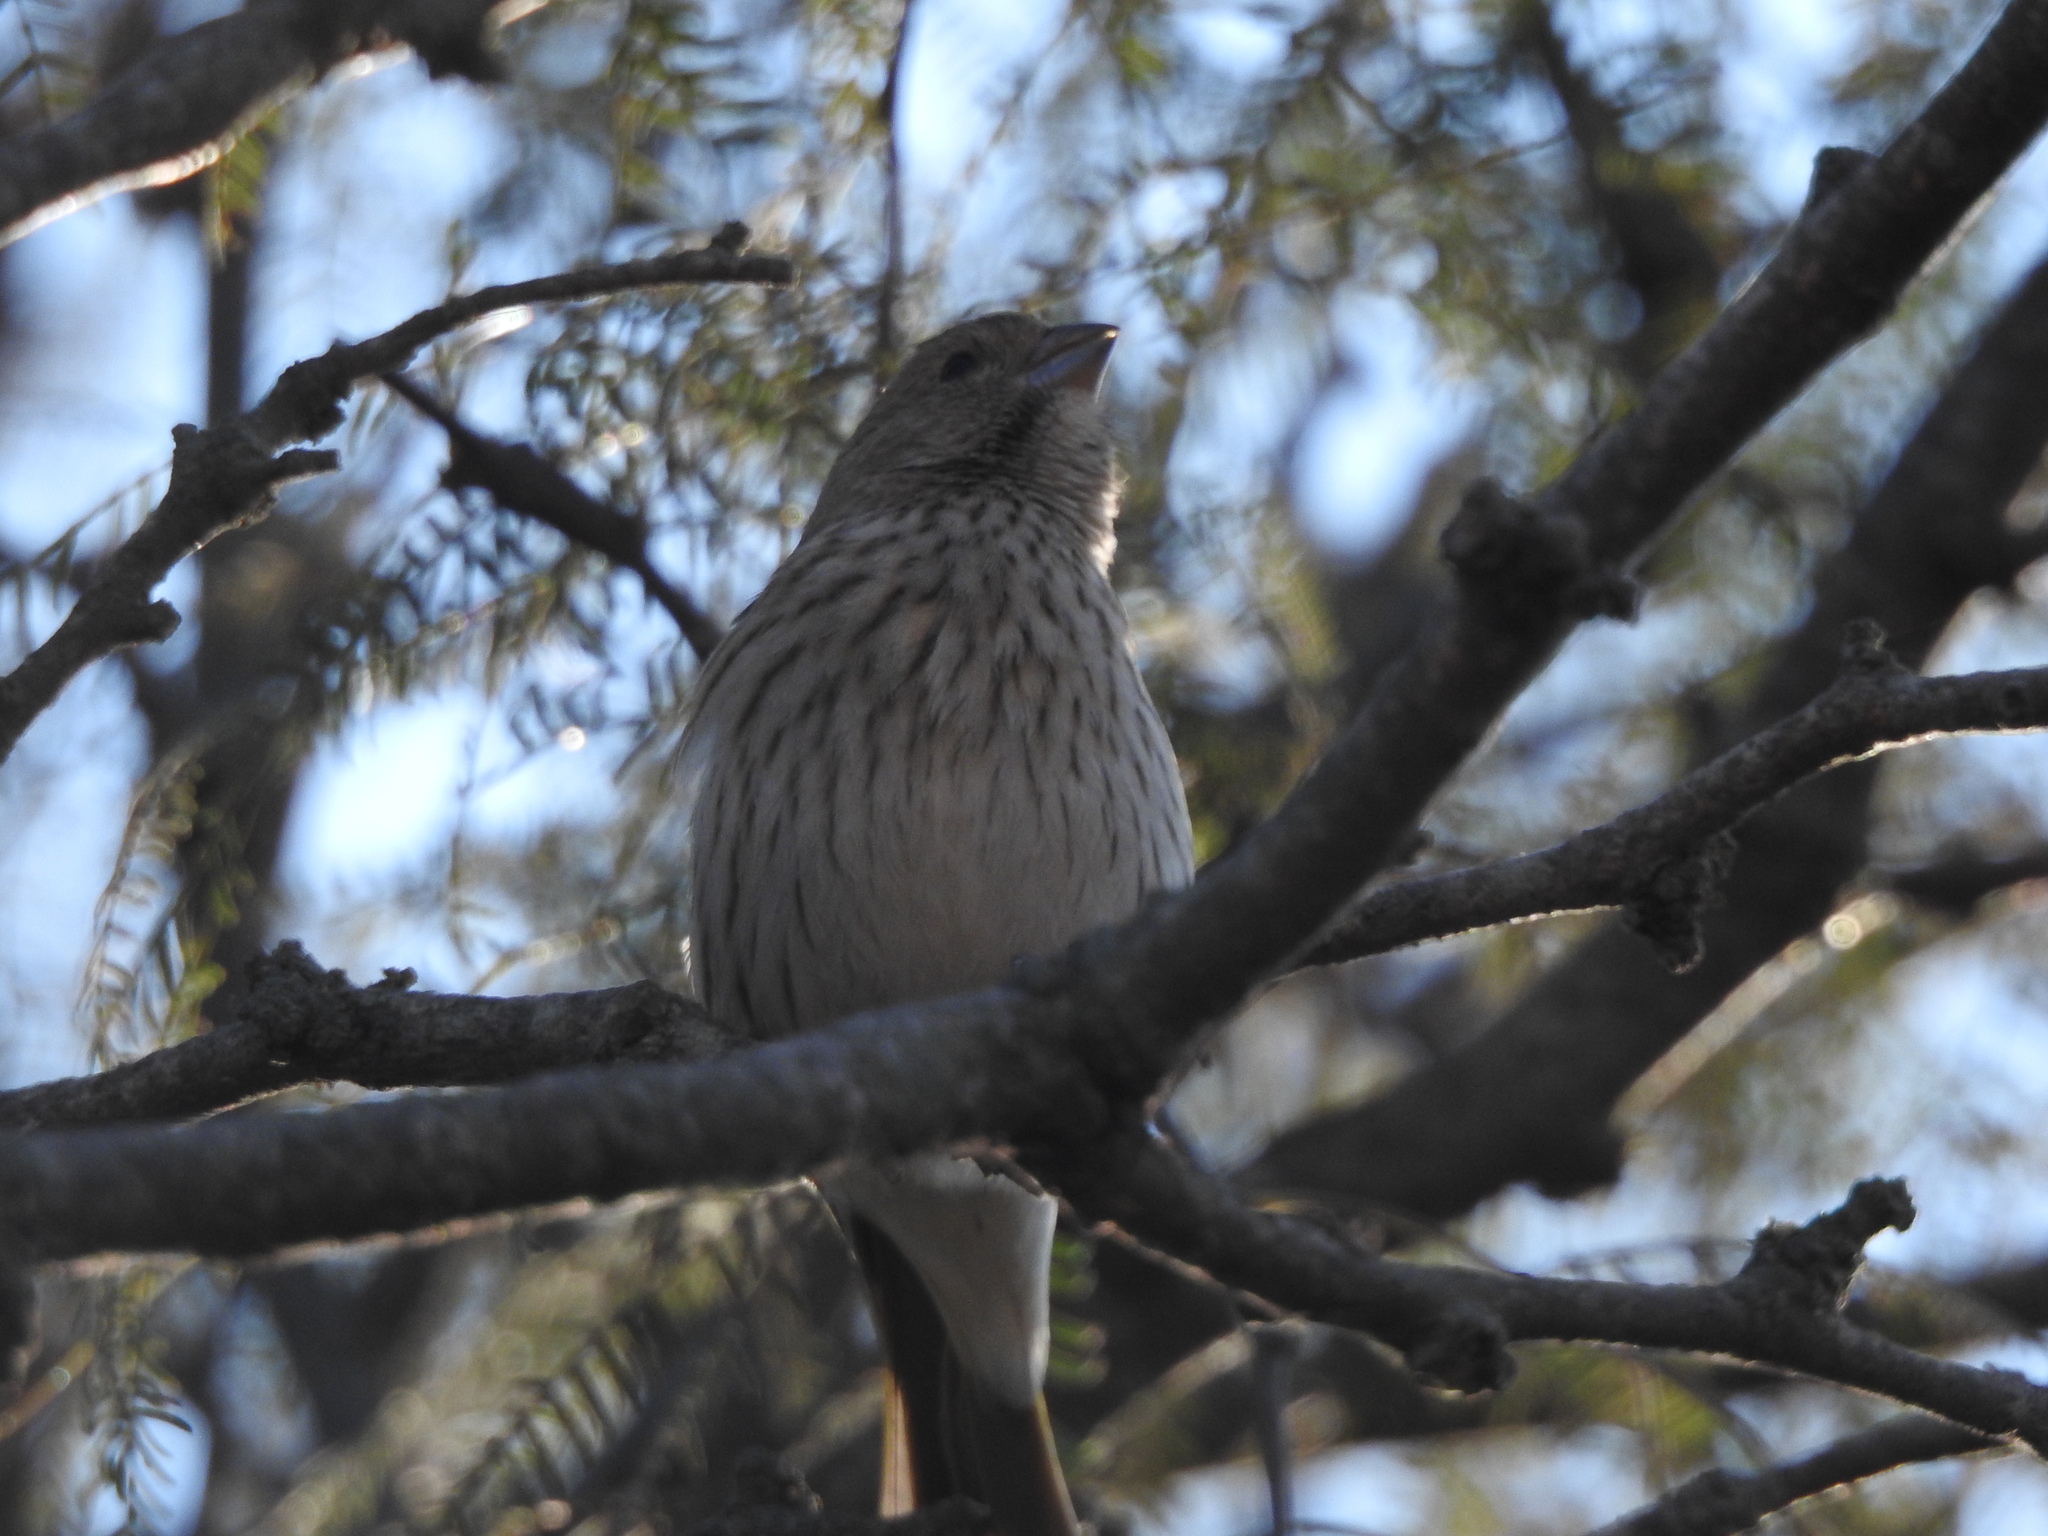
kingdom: Animalia
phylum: Chordata
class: Aves
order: Passeriformes
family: Thraupidae
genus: Sicalis
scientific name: Sicalis flaveola
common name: Saffron finch
